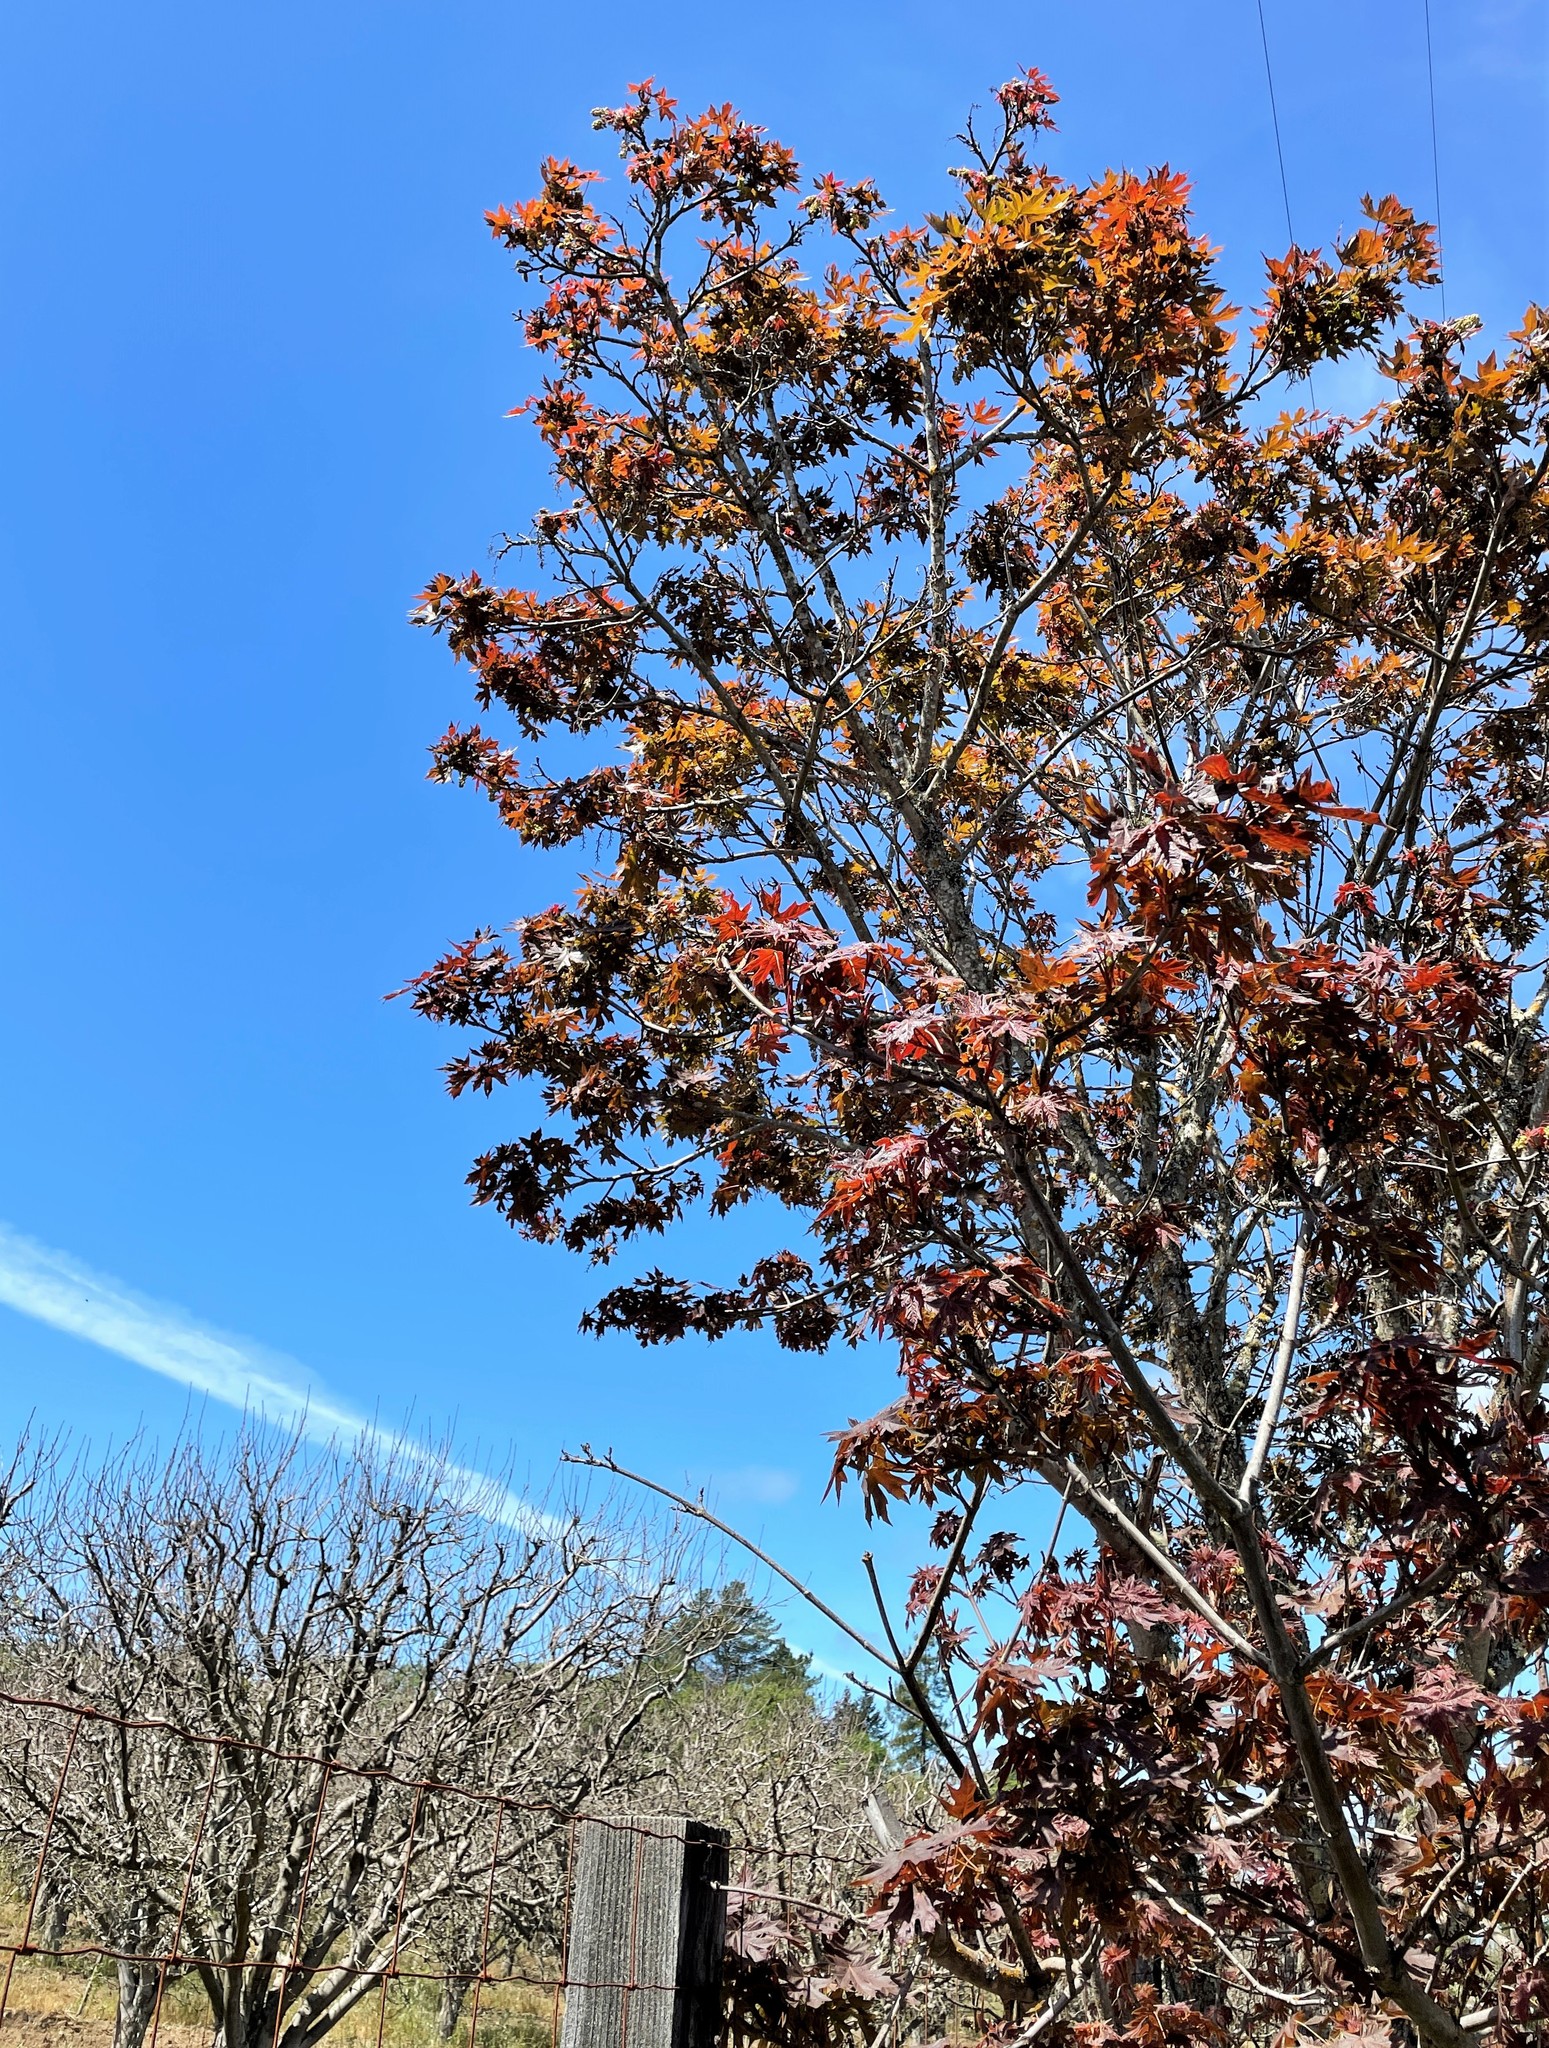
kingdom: Plantae
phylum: Tracheophyta
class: Magnoliopsida
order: Sapindales
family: Sapindaceae
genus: Acer
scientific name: Acer macrophyllum
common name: Oregon maple
